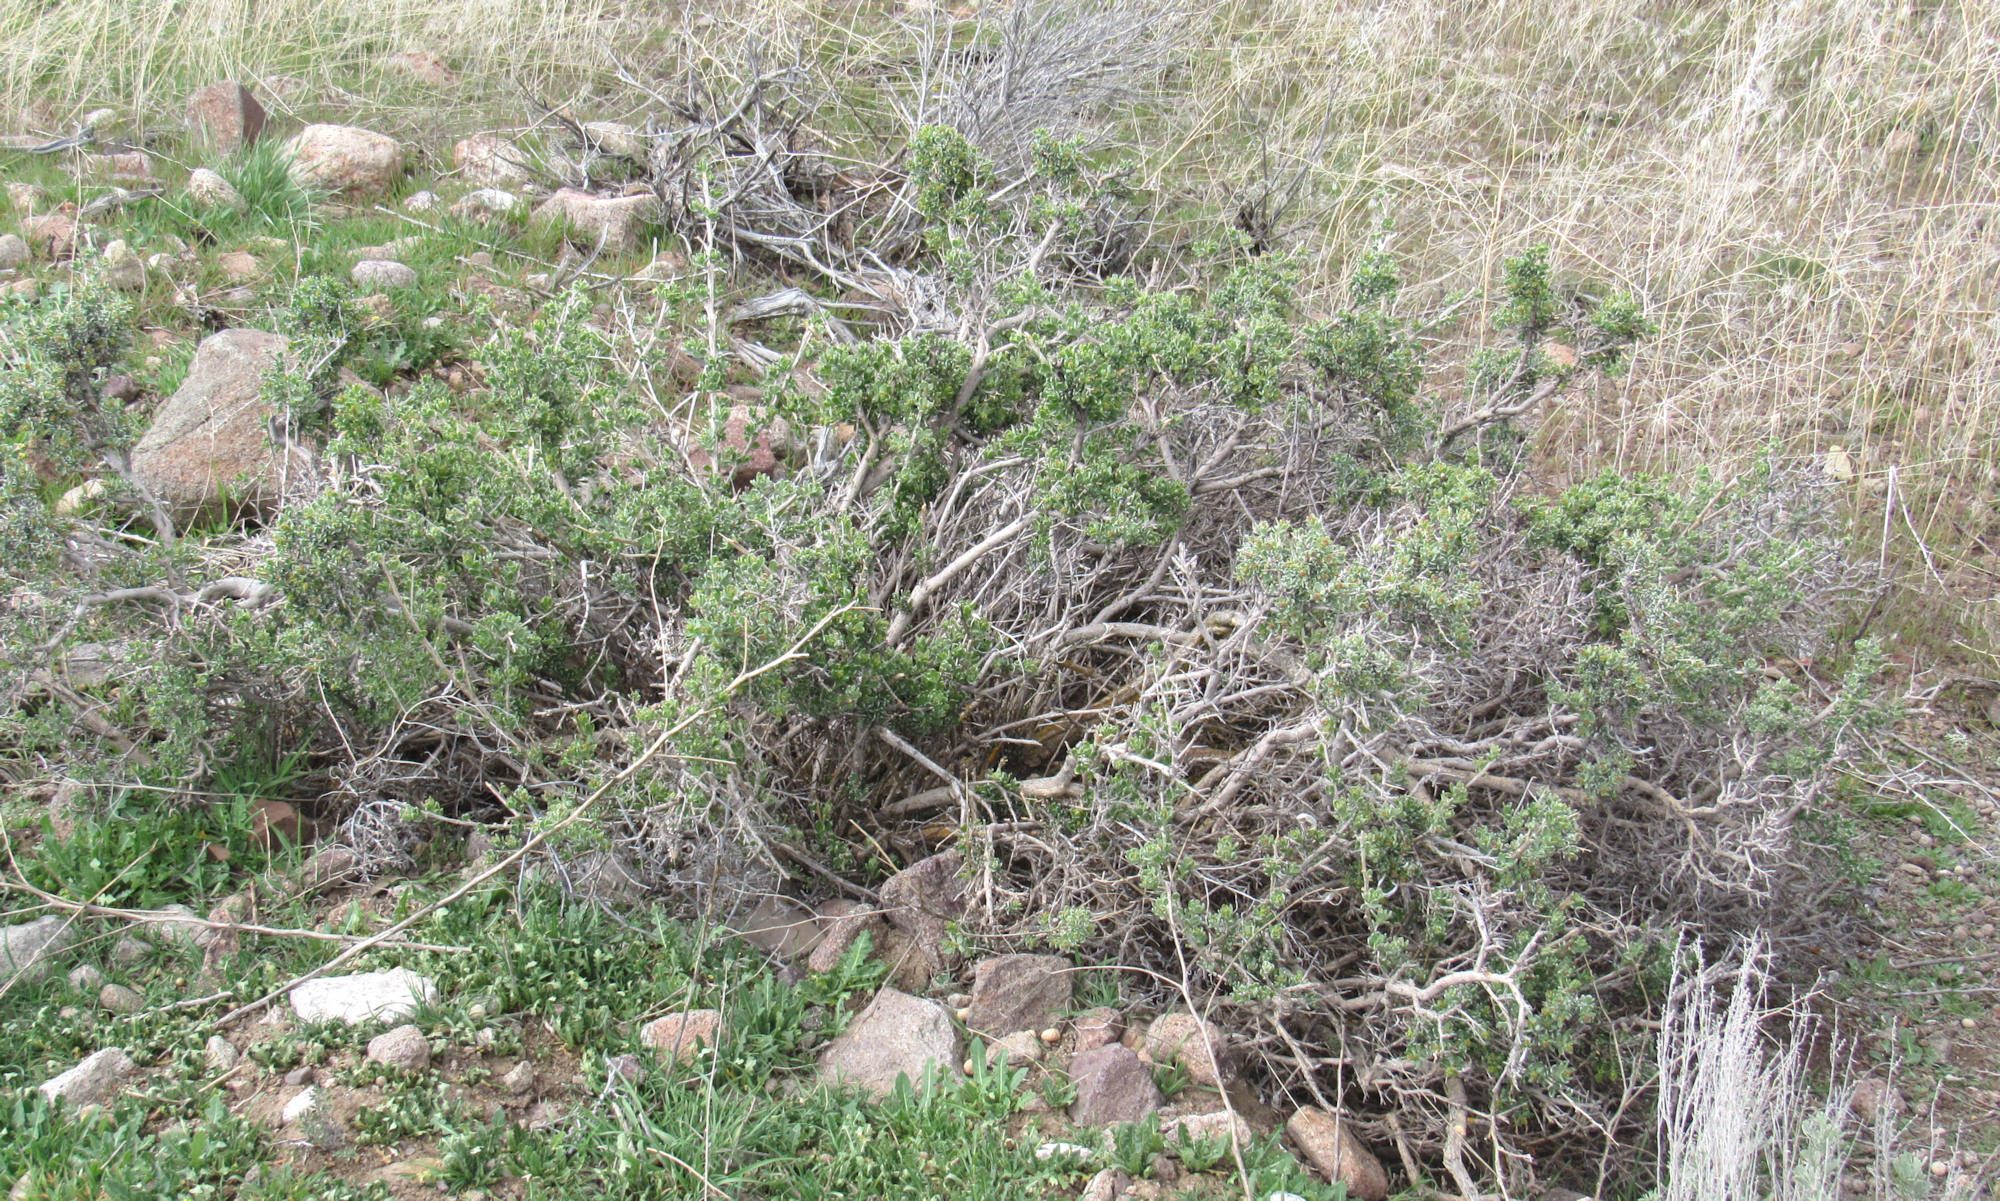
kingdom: Plantae
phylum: Tracheophyta
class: Magnoliopsida
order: Caryophyllales
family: Amaranthaceae
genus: Grayia
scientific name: Grayia spinosa
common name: Spiny hopsage
